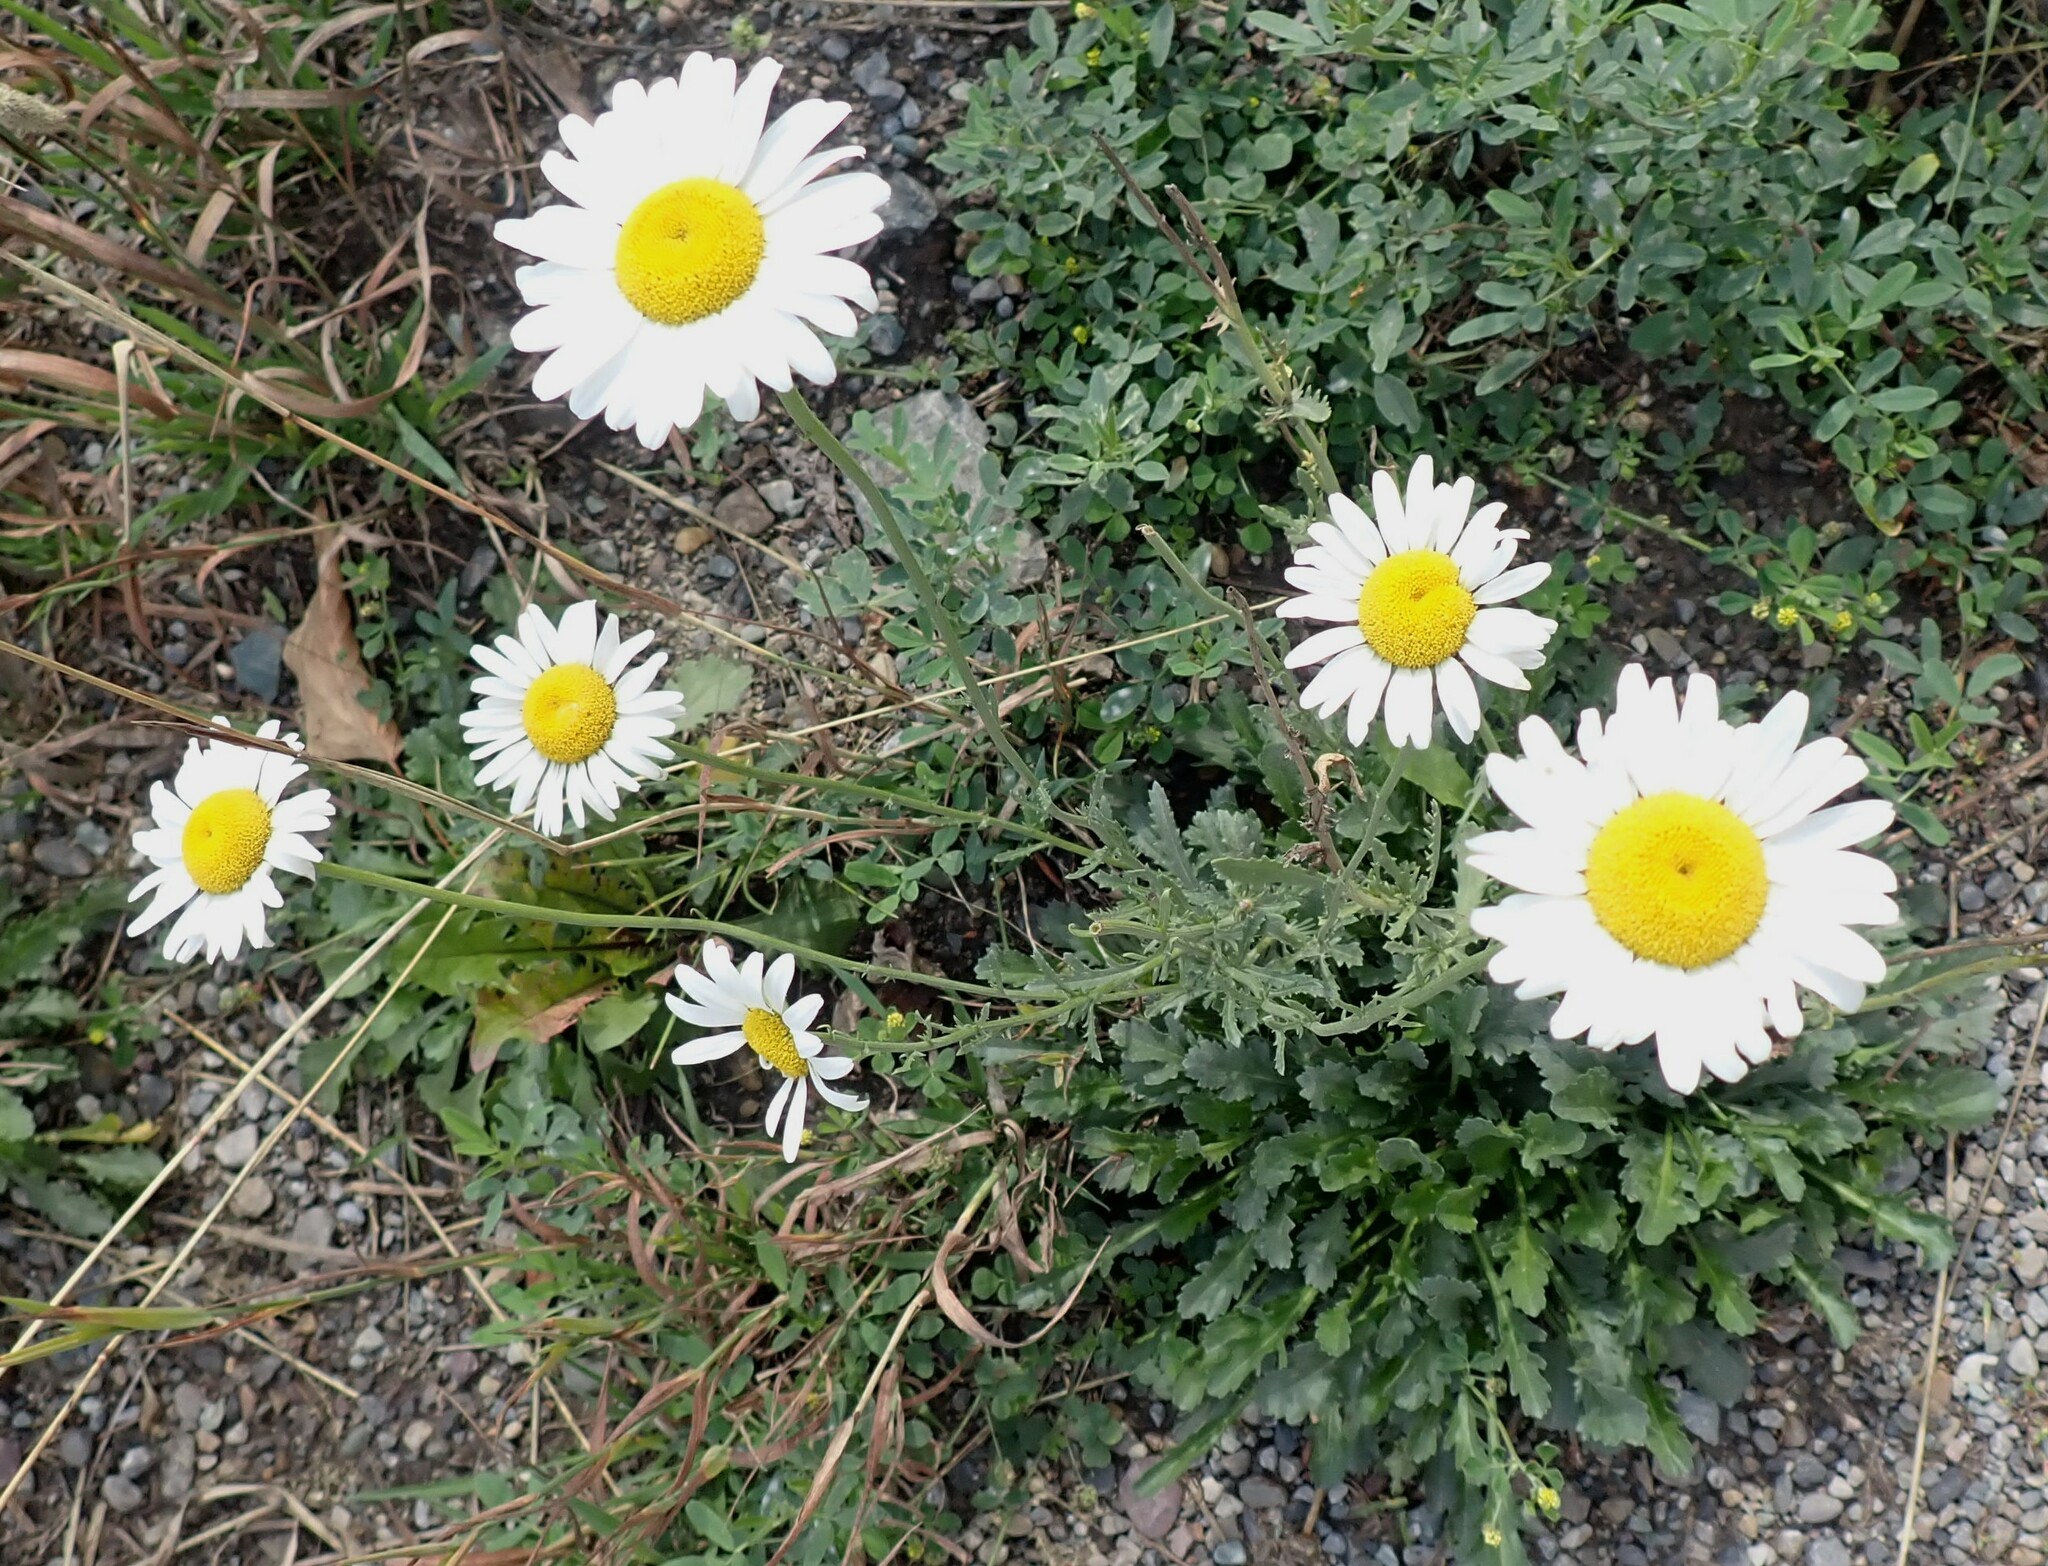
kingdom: Plantae
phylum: Tracheophyta
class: Magnoliopsida
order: Asterales
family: Asteraceae
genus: Leucanthemum
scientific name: Leucanthemum vulgare
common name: Oxeye daisy
